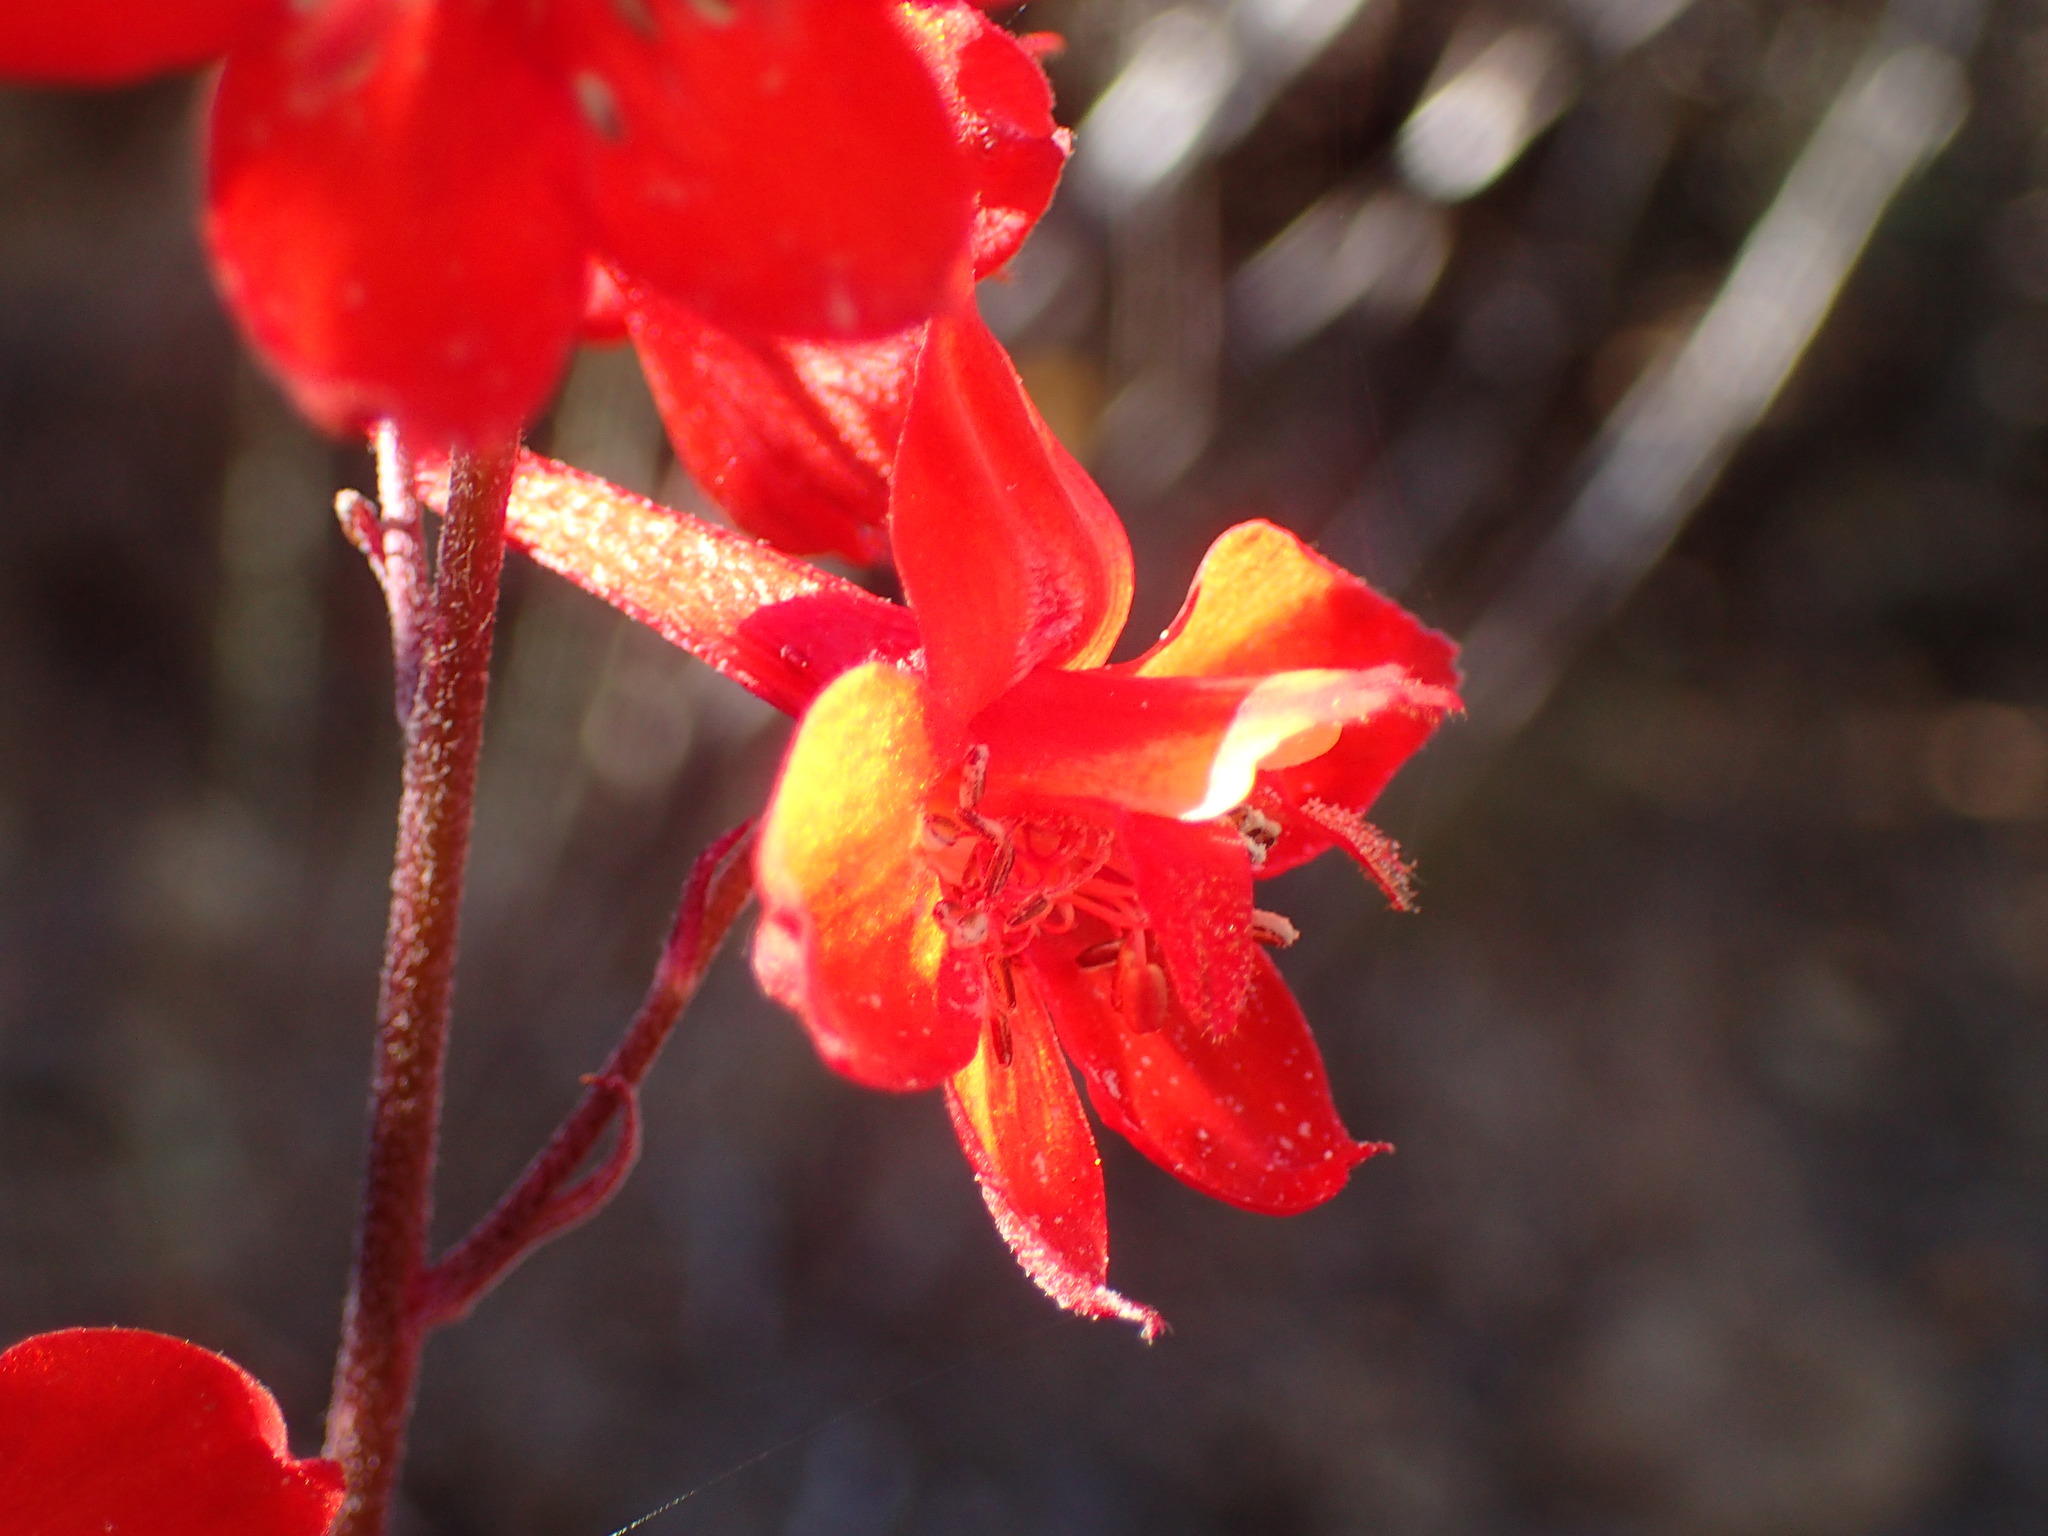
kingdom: Plantae
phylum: Tracheophyta
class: Magnoliopsida
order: Ranunculales
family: Ranunculaceae
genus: Delphinium
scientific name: Delphinium cardinale
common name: Scarlet larkspur
